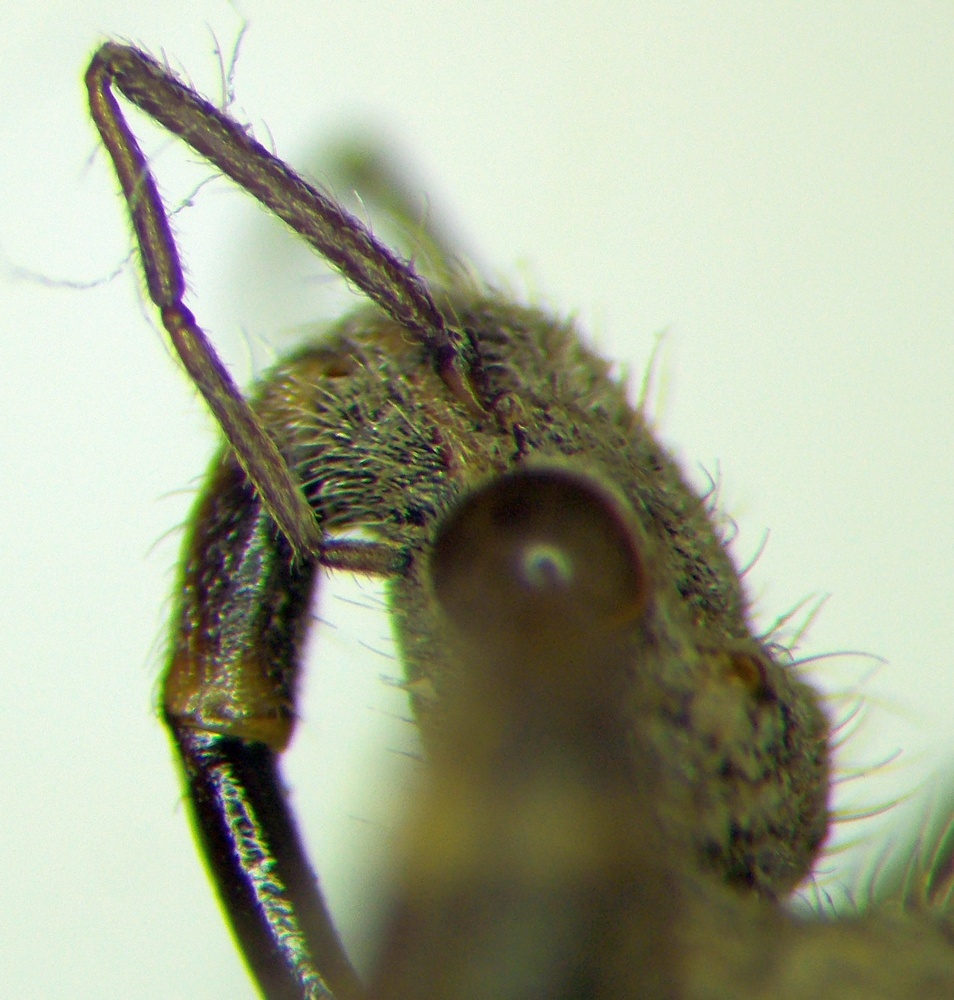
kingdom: Animalia
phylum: Arthropoda
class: Insecta
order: Hemiptera
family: Reduviidae
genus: Coranus
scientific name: Coranus griseus
